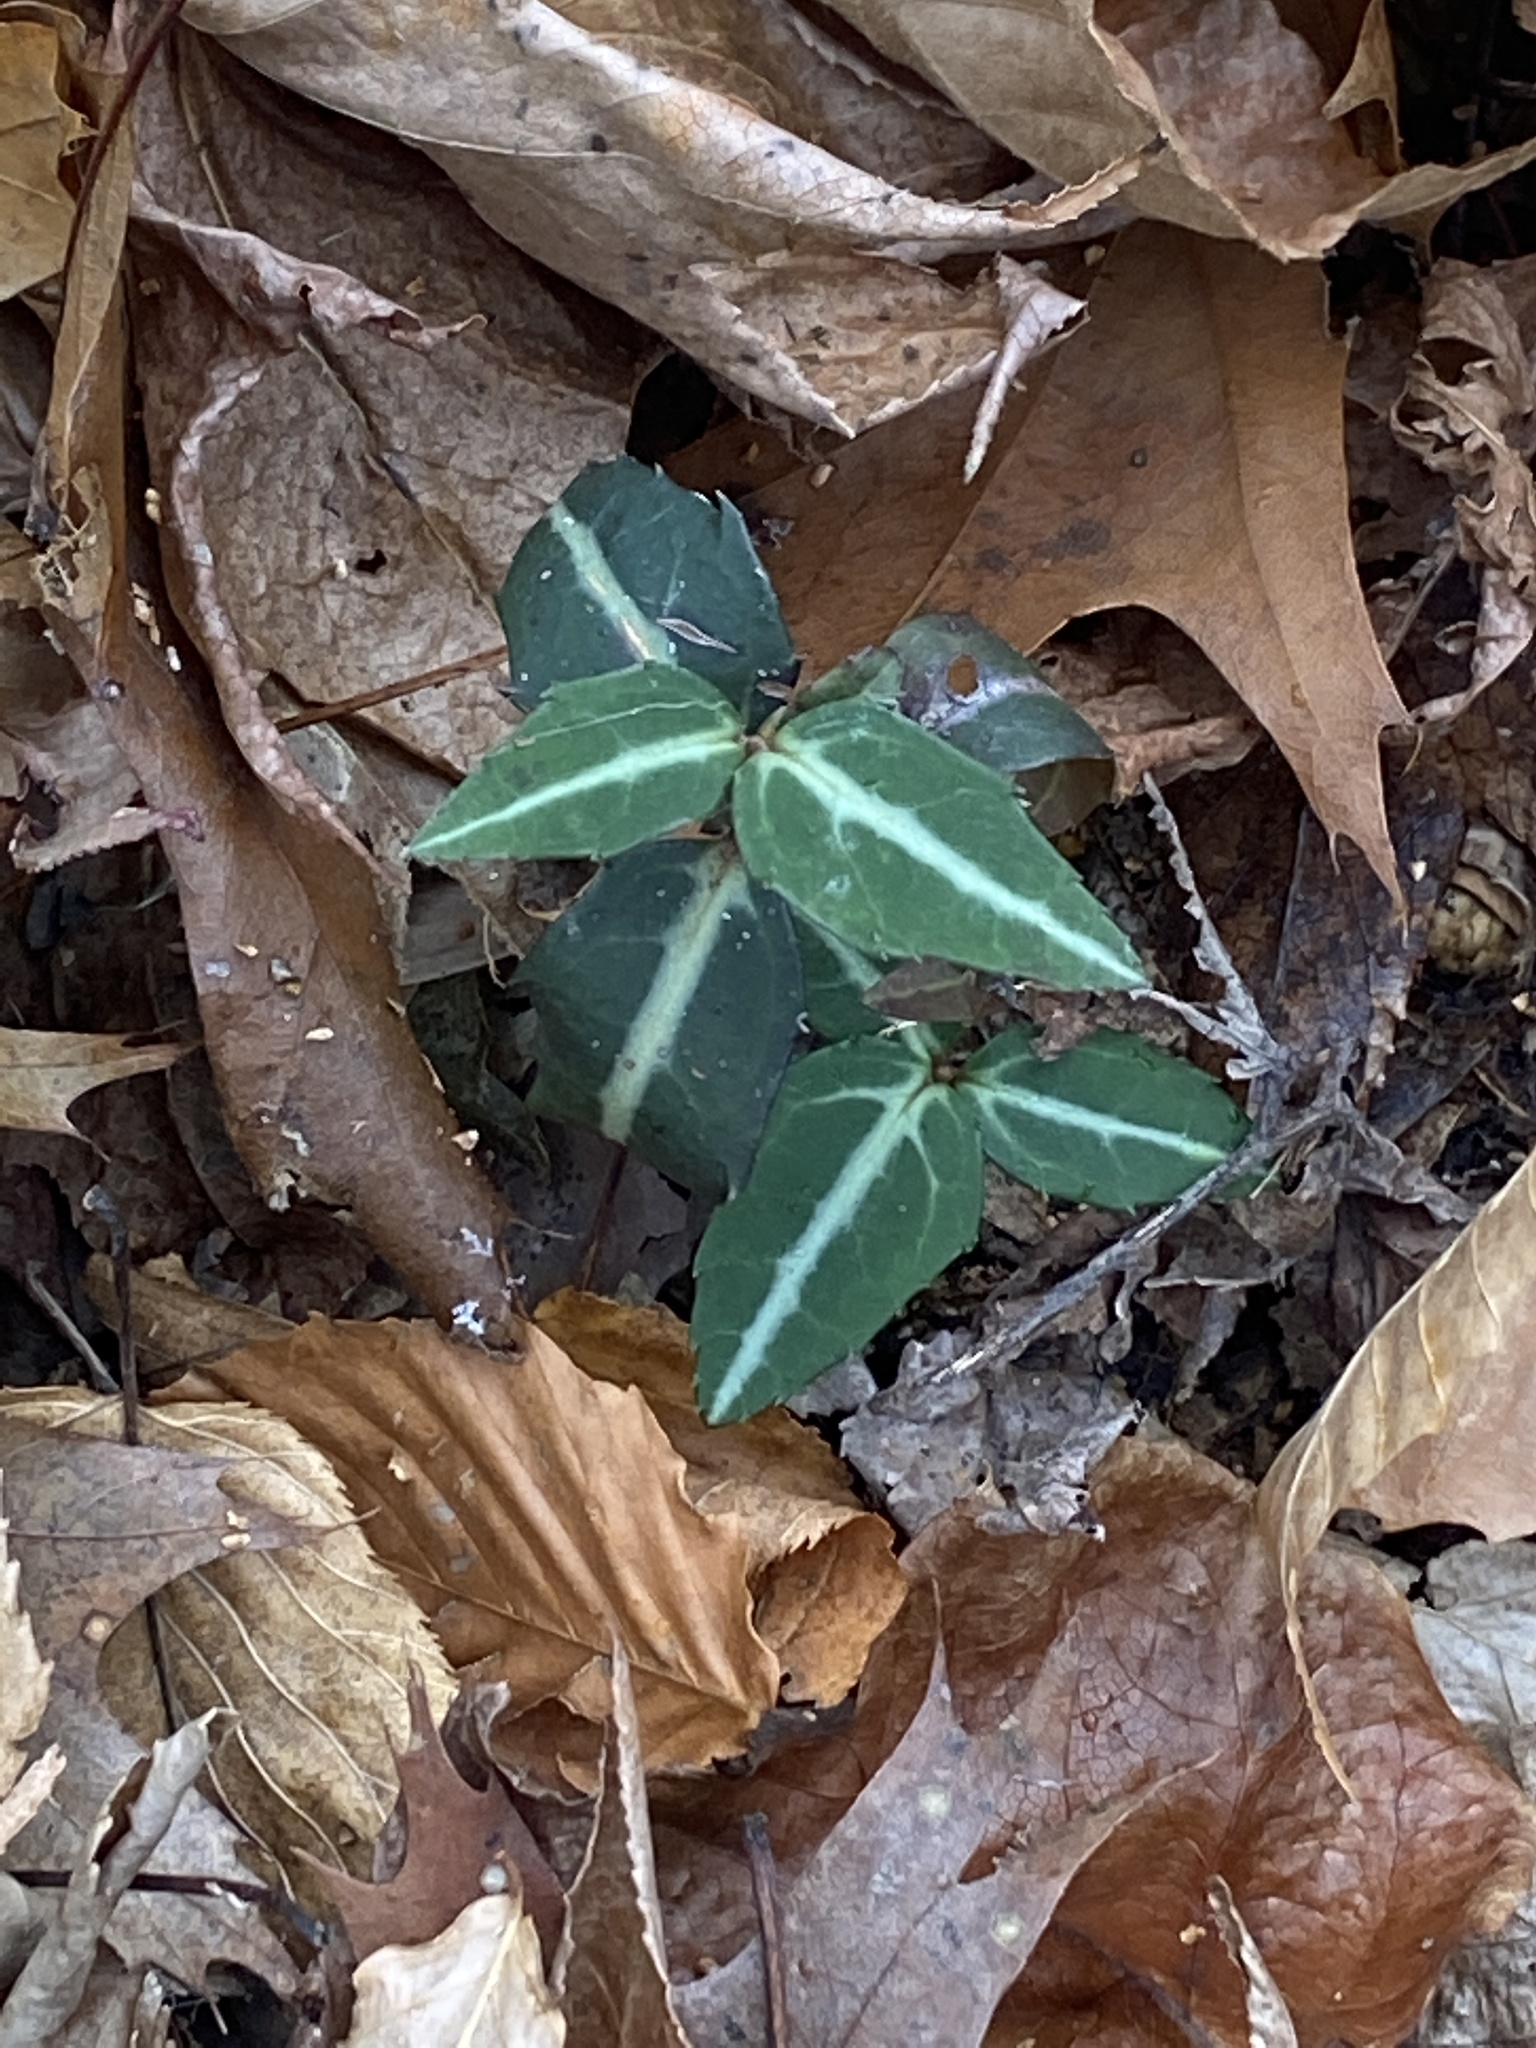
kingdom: Plantae
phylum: Tracheophyta
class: Magnoliopsida
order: Ericales
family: Ericaceae
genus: Chimaphila
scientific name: Chimaphila maculata
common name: Spotted pipsissewa
